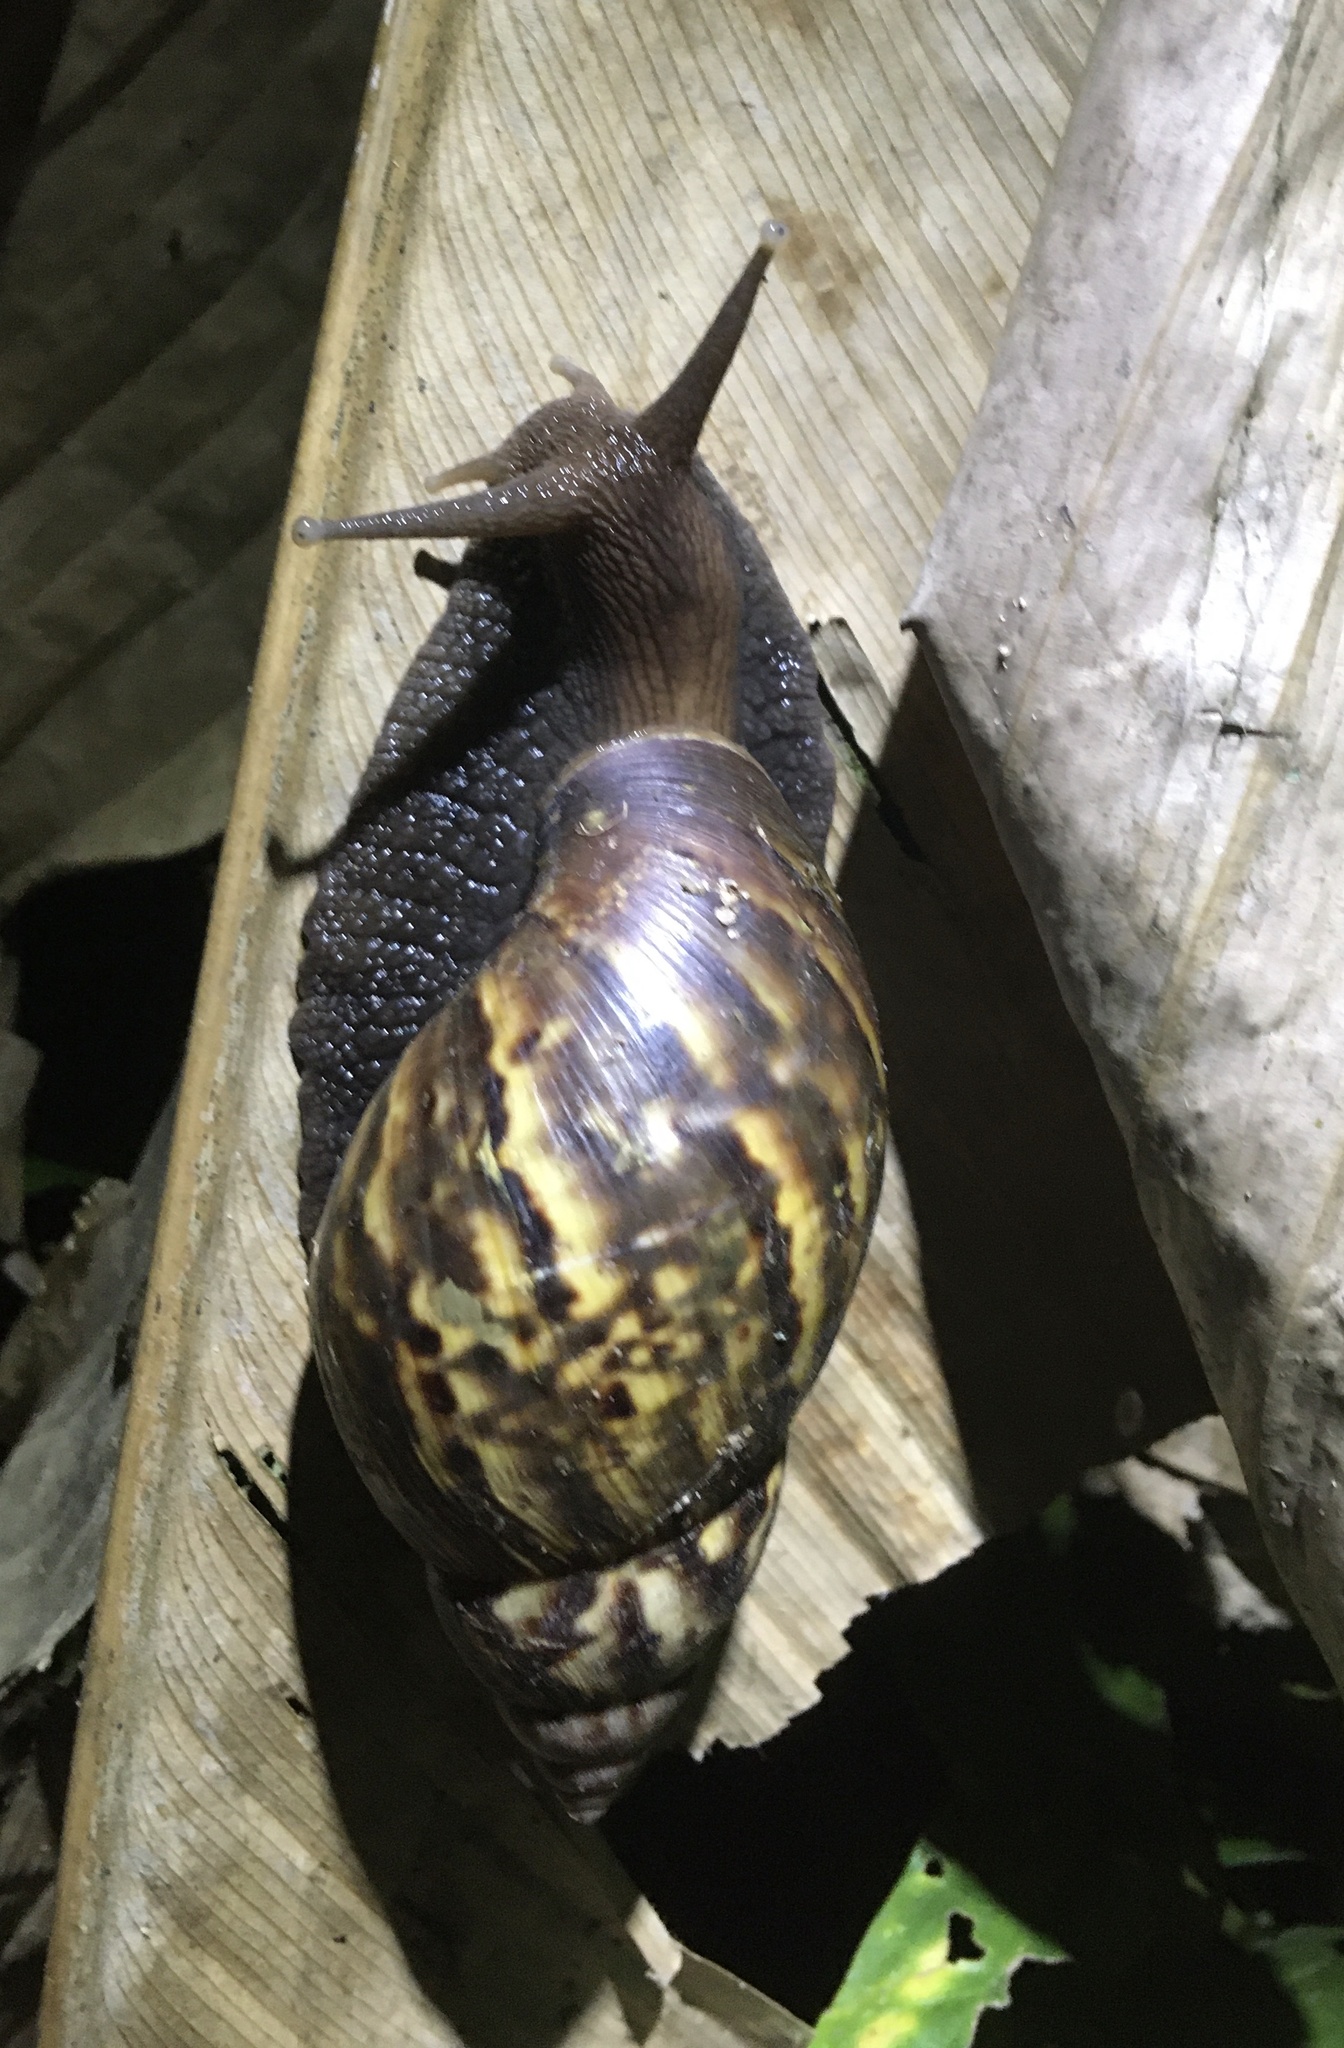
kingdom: Animalia
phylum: Mollusca
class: Gastropoda
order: Stylommatophora
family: Achatinidae
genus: Lissachatina
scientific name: Lissachatina fulica
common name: Giant african snail
